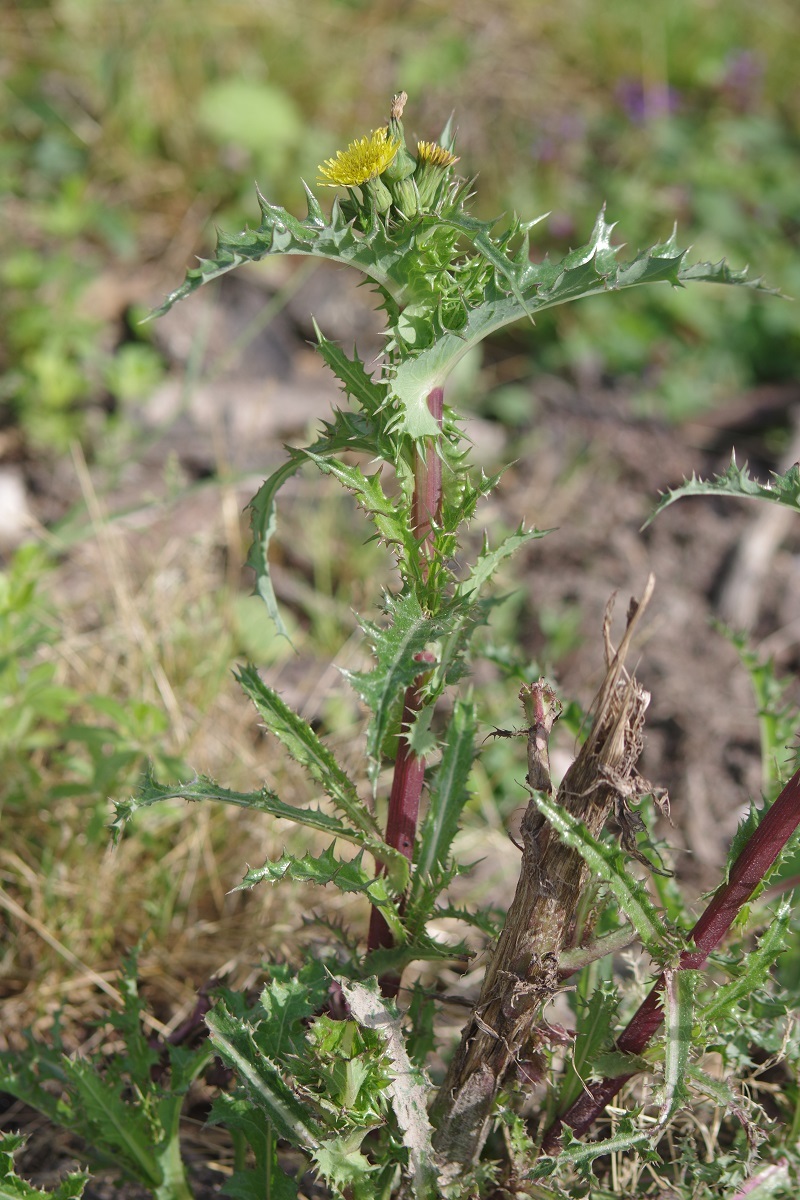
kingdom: Plantae
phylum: Tracheophyta
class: Magnoliopsida
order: Asterales
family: Asteraceae
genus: Sonchus
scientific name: Sonchus asper
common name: Prickly sow-thistle
